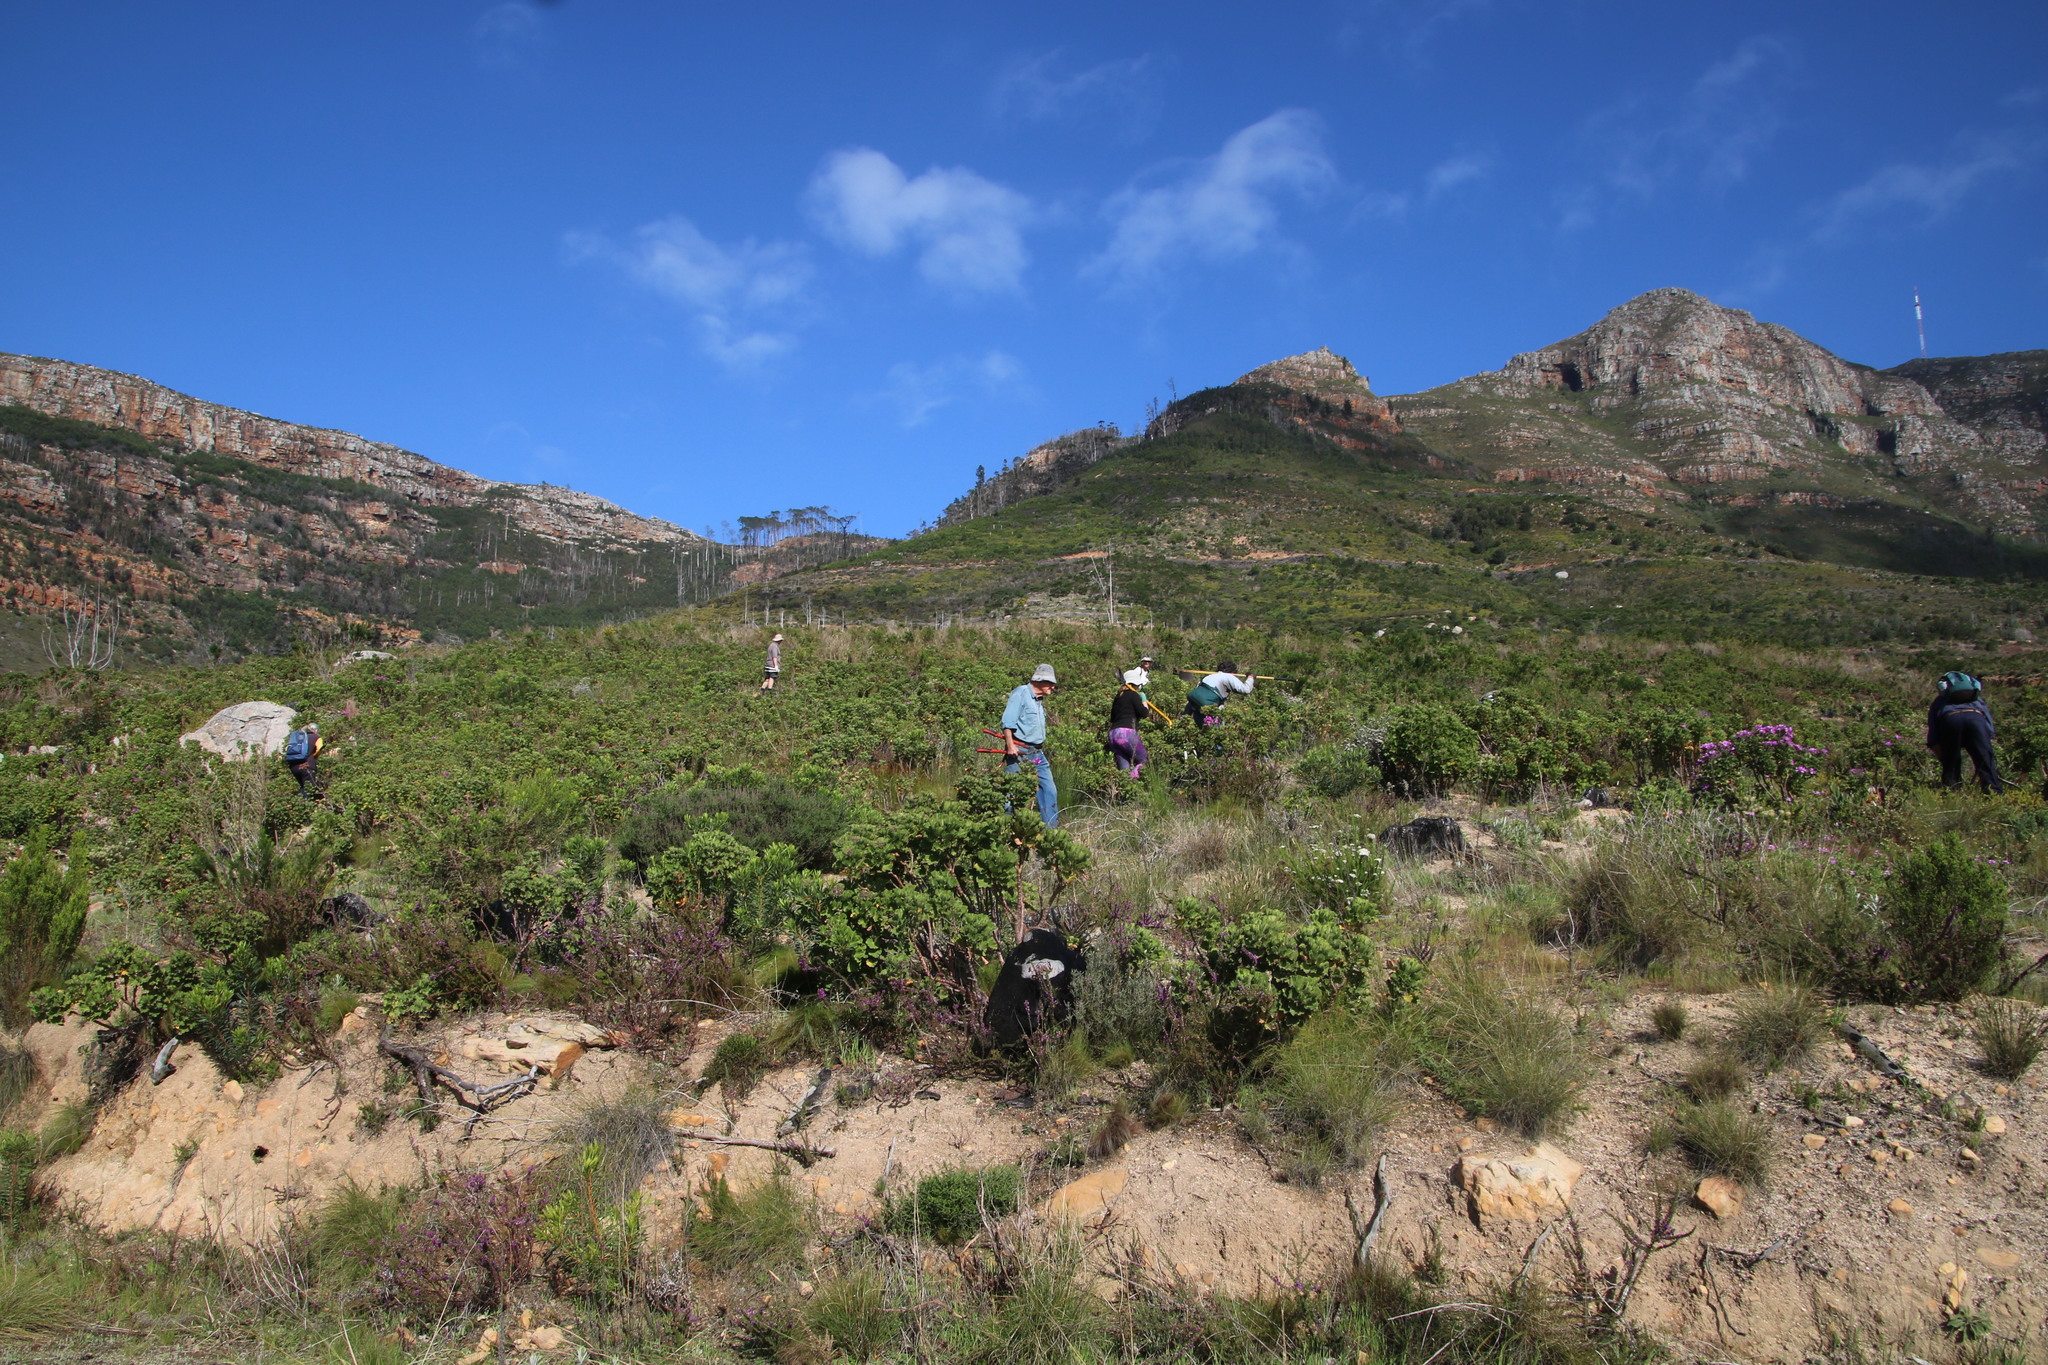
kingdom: Plantae
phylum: Tracheophyta
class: Magnoliopsida
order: Geraniales
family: Geraniaceae
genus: Pelargonium
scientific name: Pelargonium cucullatum
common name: Tree pelargonium
